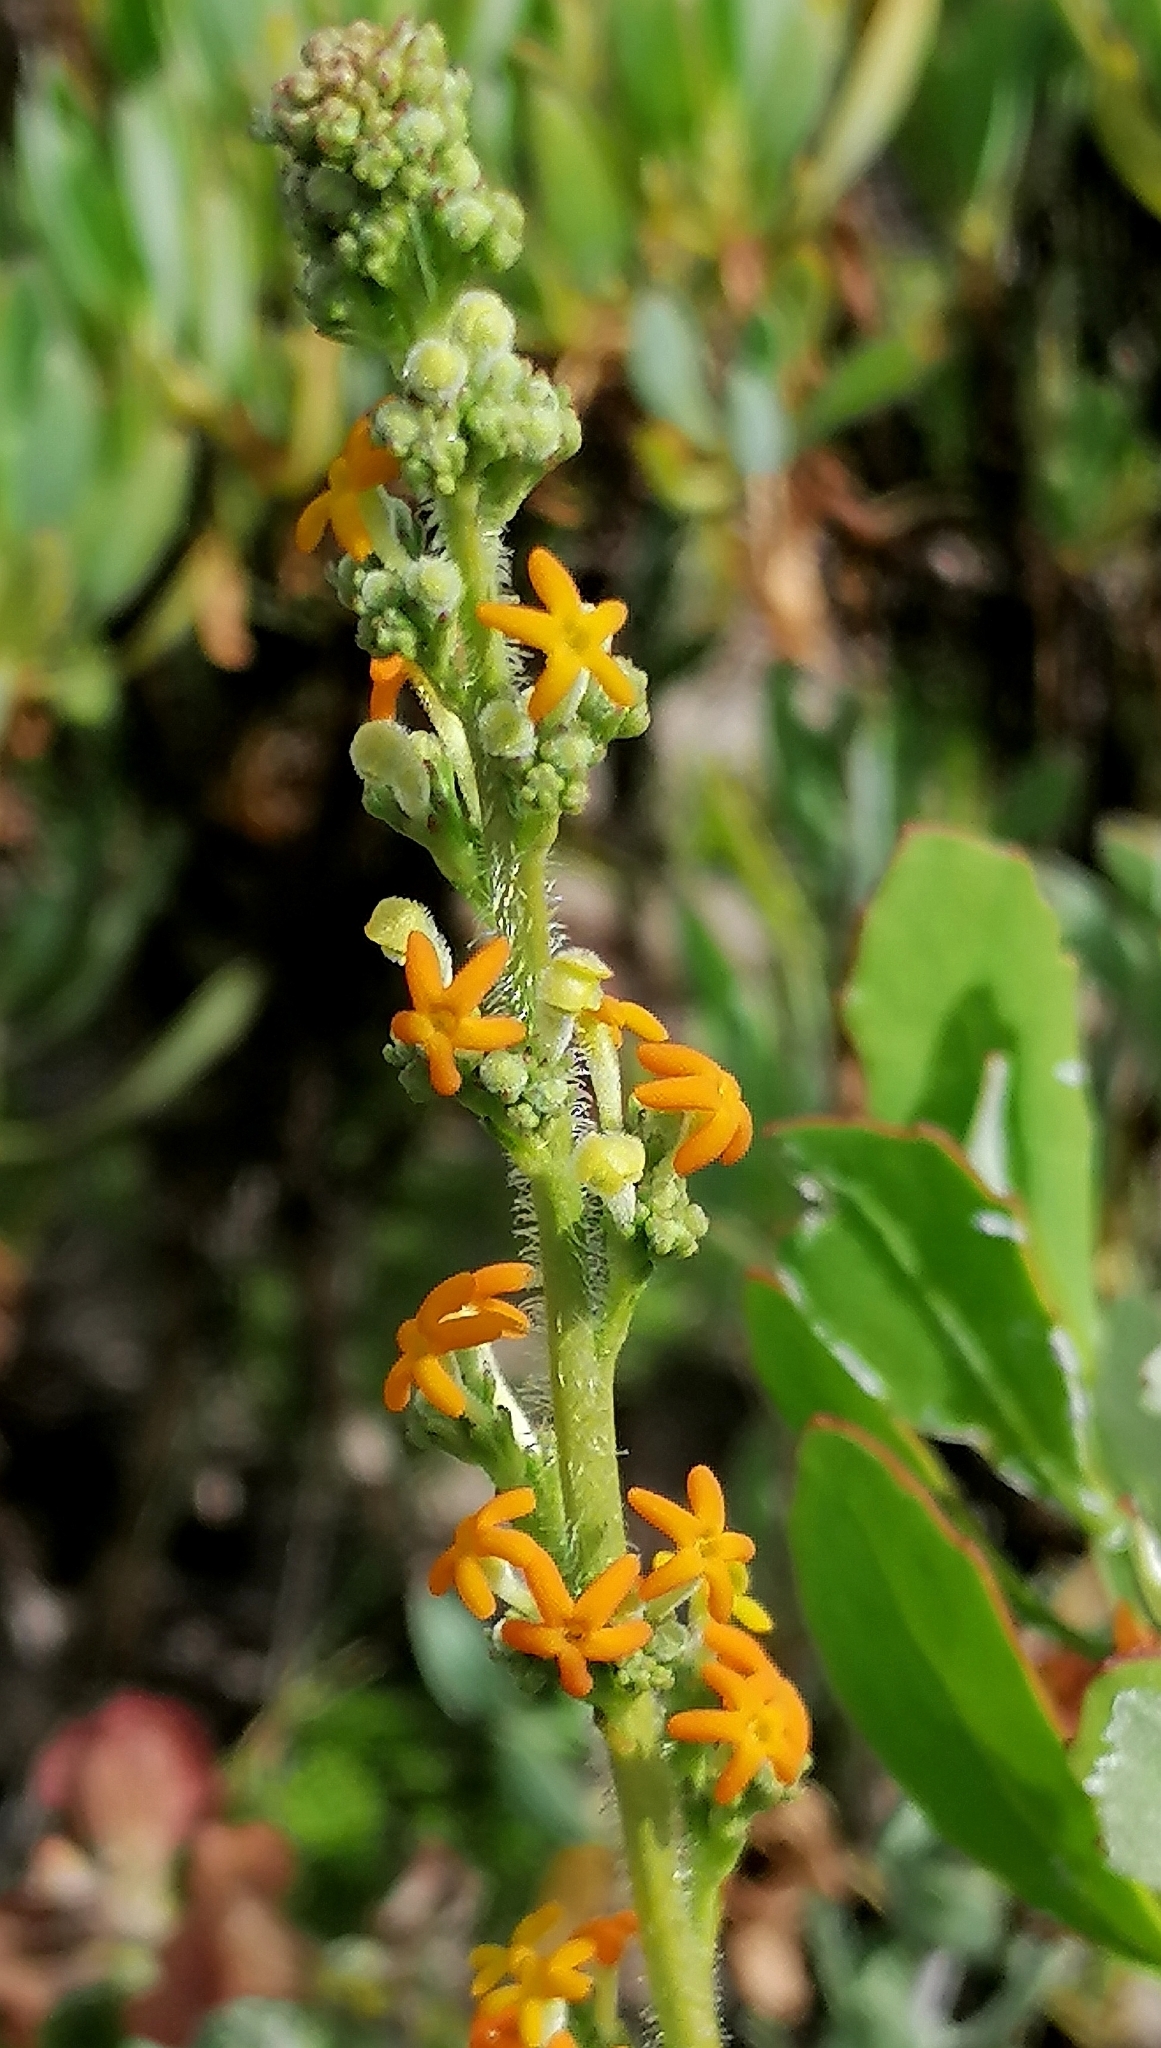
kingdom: Plantae
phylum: Tracheophyta
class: Magnoliopsida
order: Lamiales
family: Scrophulariaceae
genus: Manulea
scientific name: Manulea rubra
